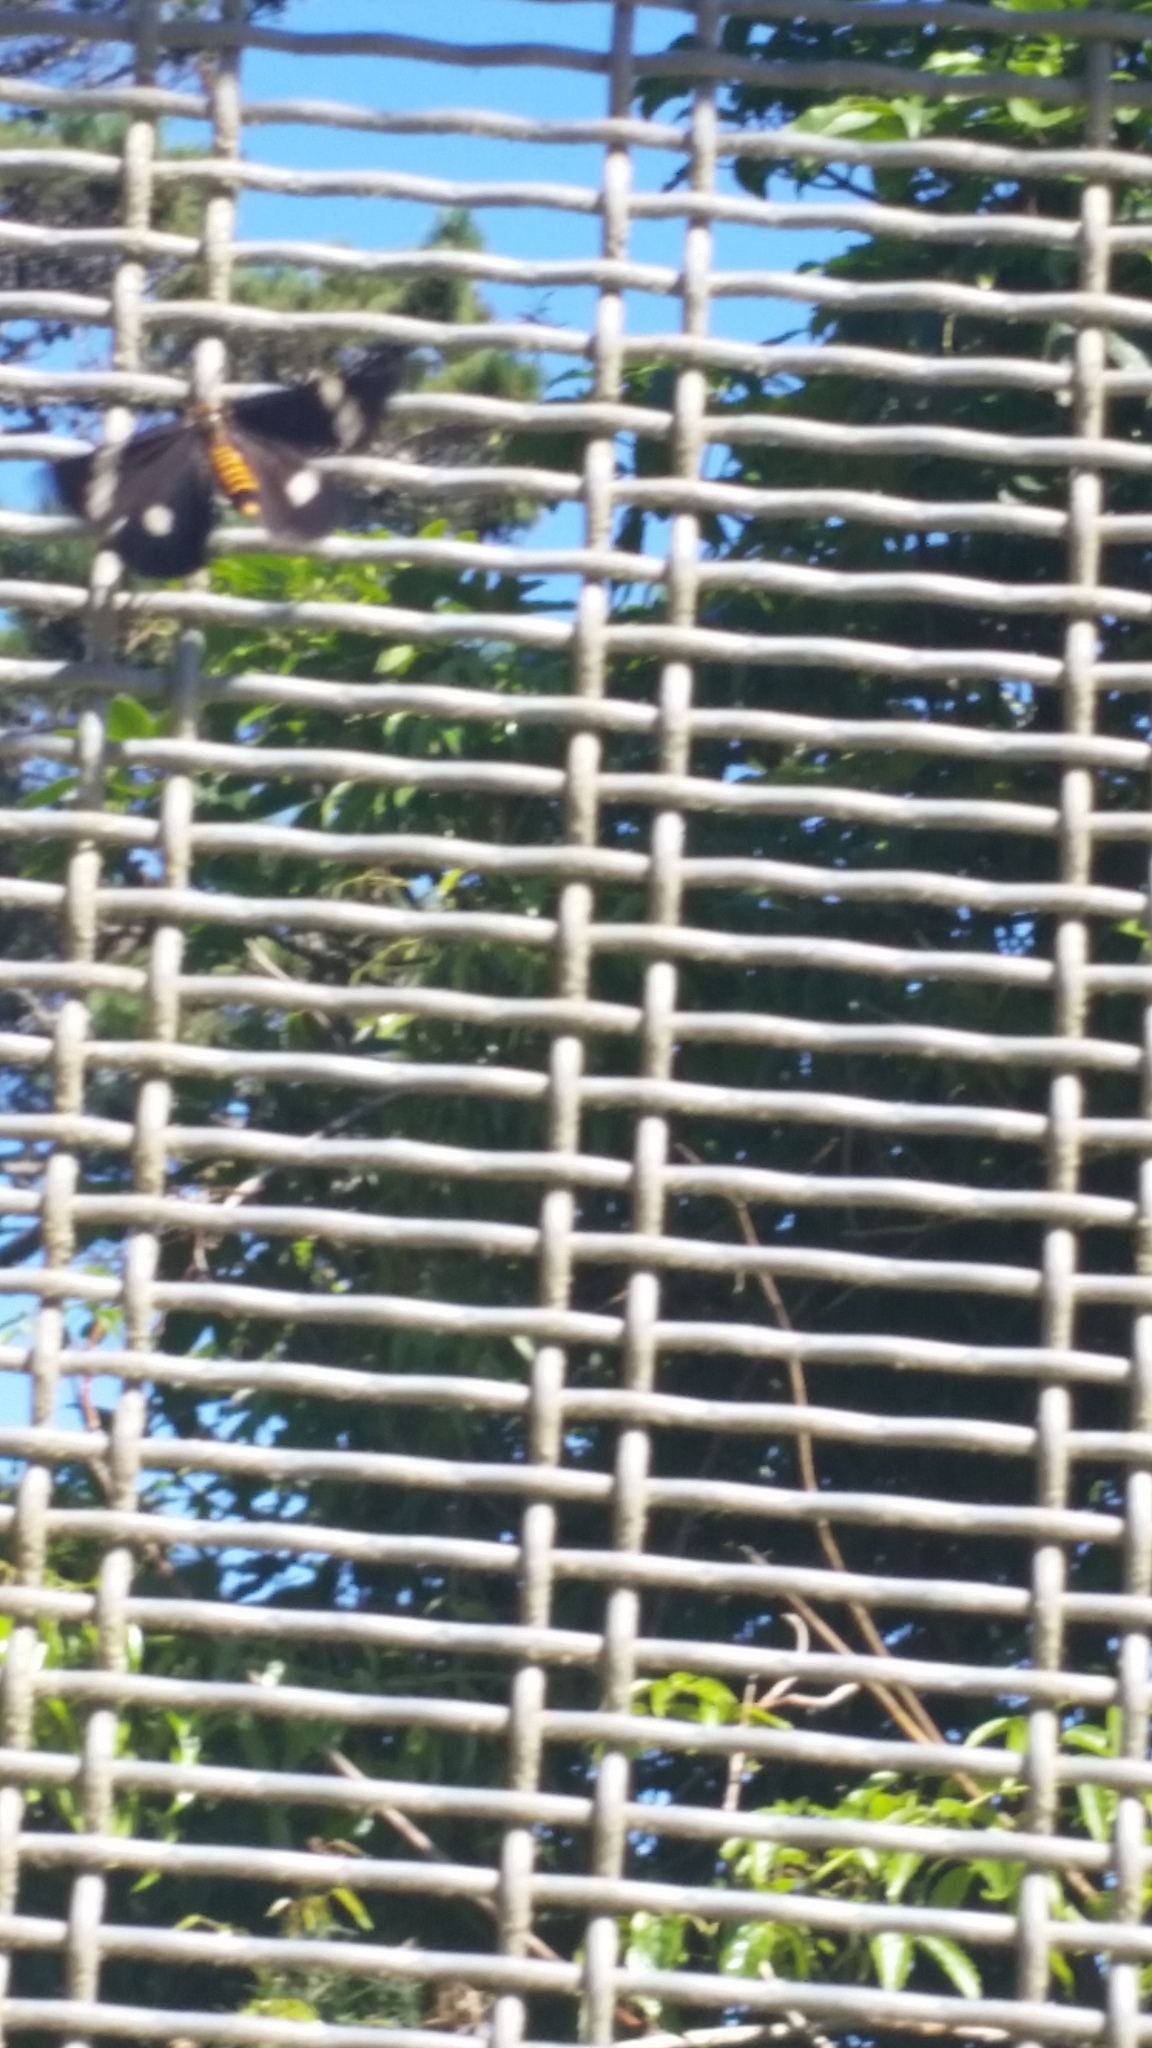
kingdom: Animalia
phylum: Arthropoda
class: Insecta
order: Lepidoptera
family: Erebidae
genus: Nyctemera
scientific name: Nyctemera annulatum
